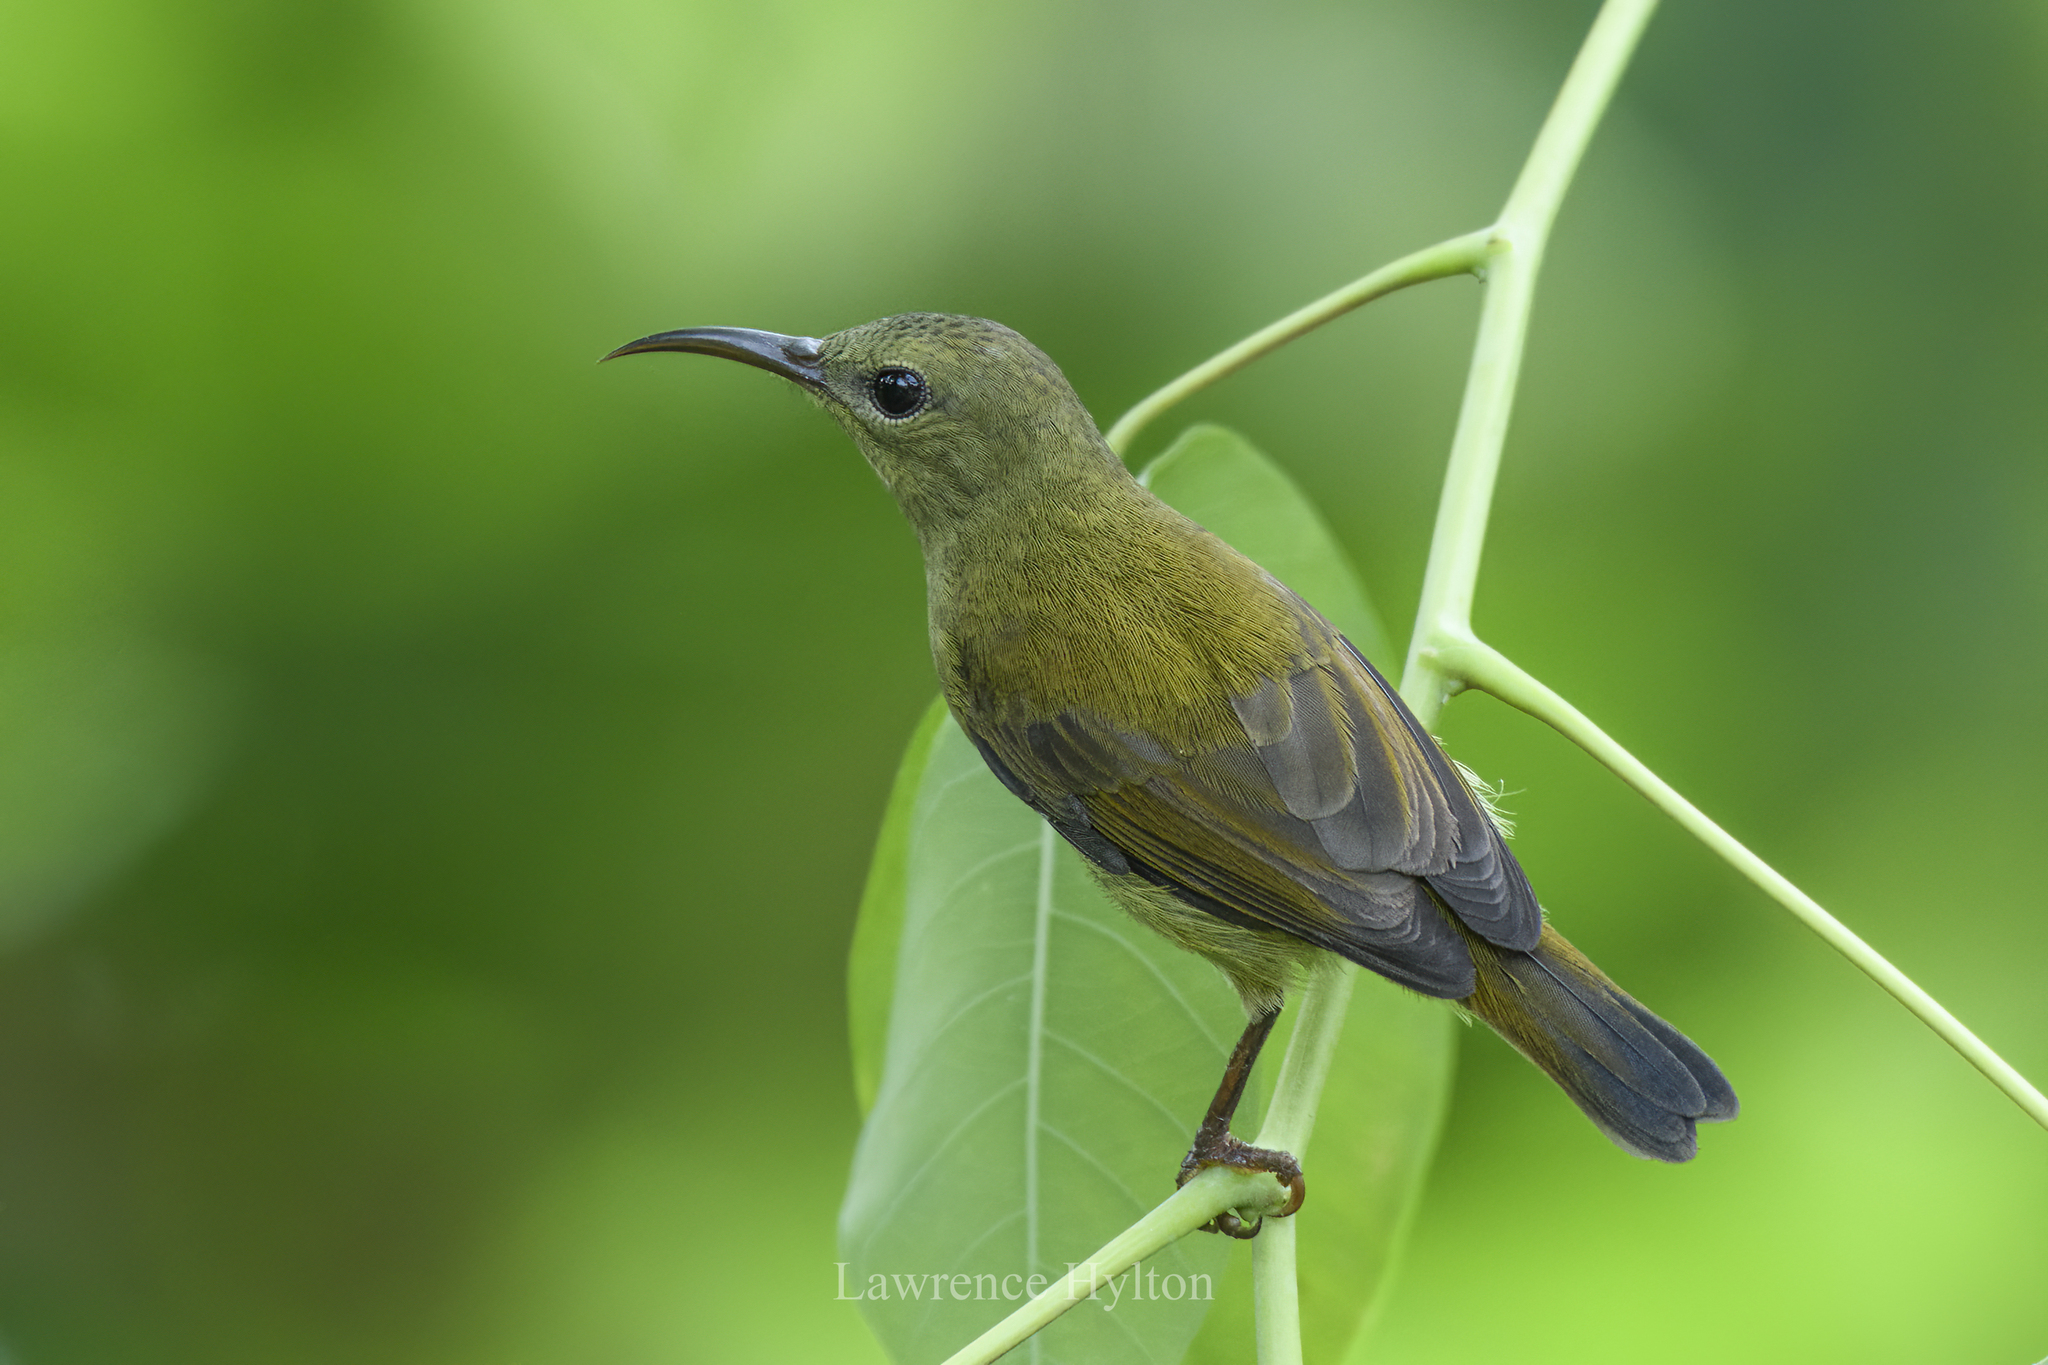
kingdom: Animalia
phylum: Chordata
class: Aves
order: Passeriformes
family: Nectariniidae
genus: Aethopyga
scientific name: Aethopyga siparaja
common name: Crimson sunbird
